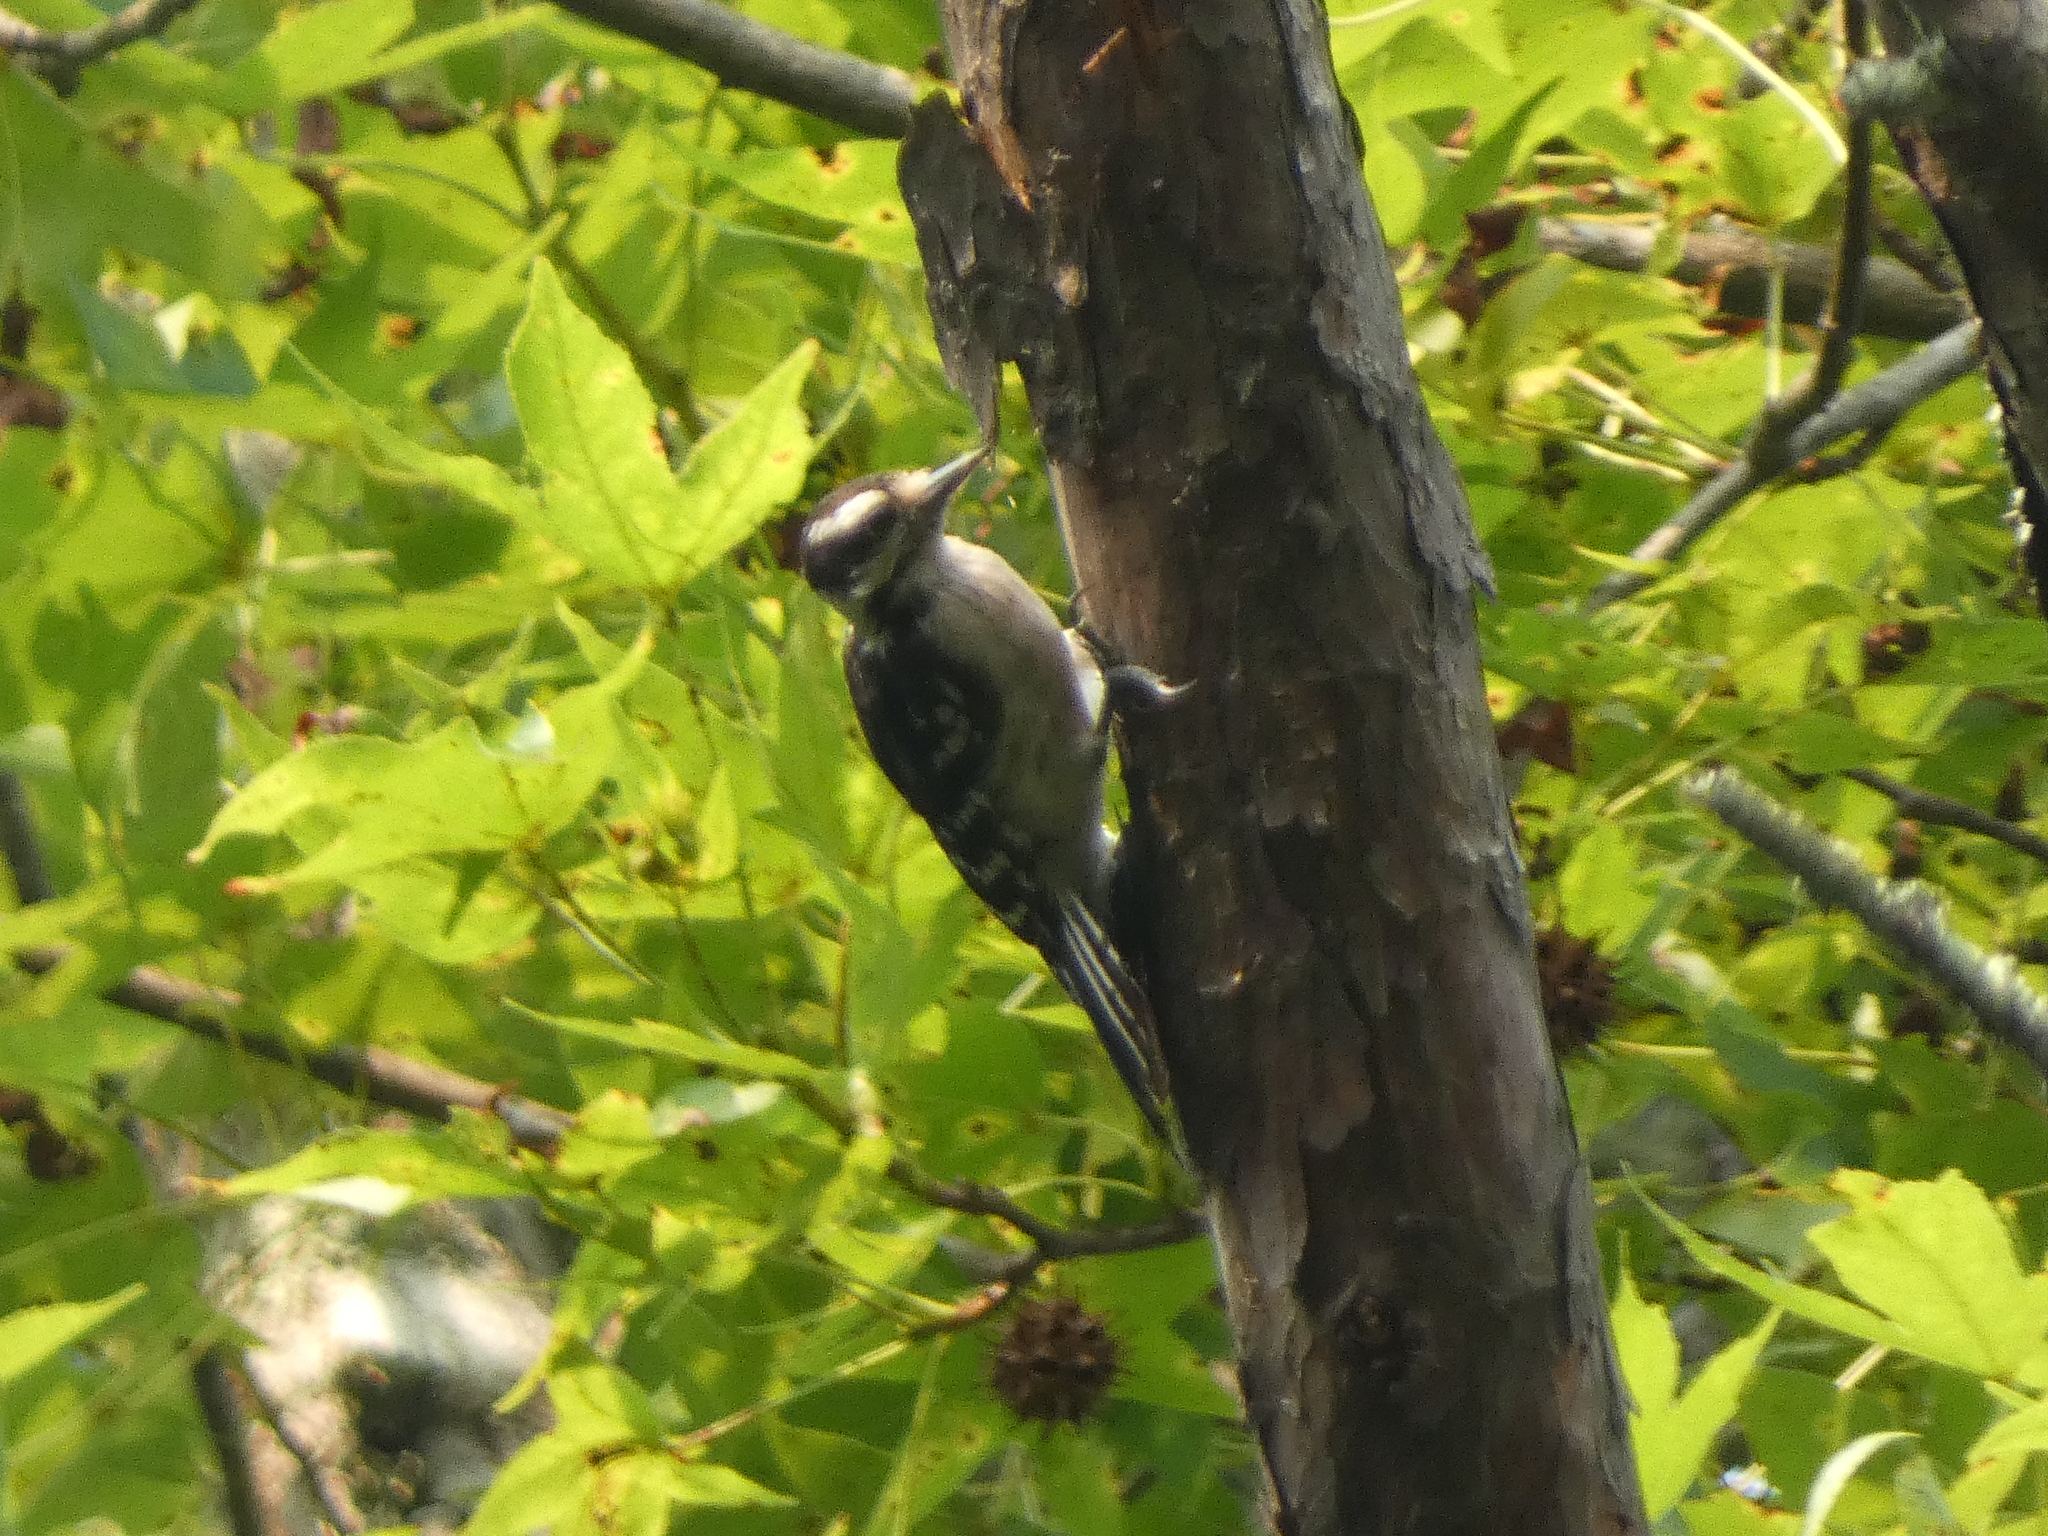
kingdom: Animalia
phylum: Chordata
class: Aves
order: Piciformes
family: Picidae
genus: Dryobates
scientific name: Dryobates pubescens
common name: Downy woodpecker
